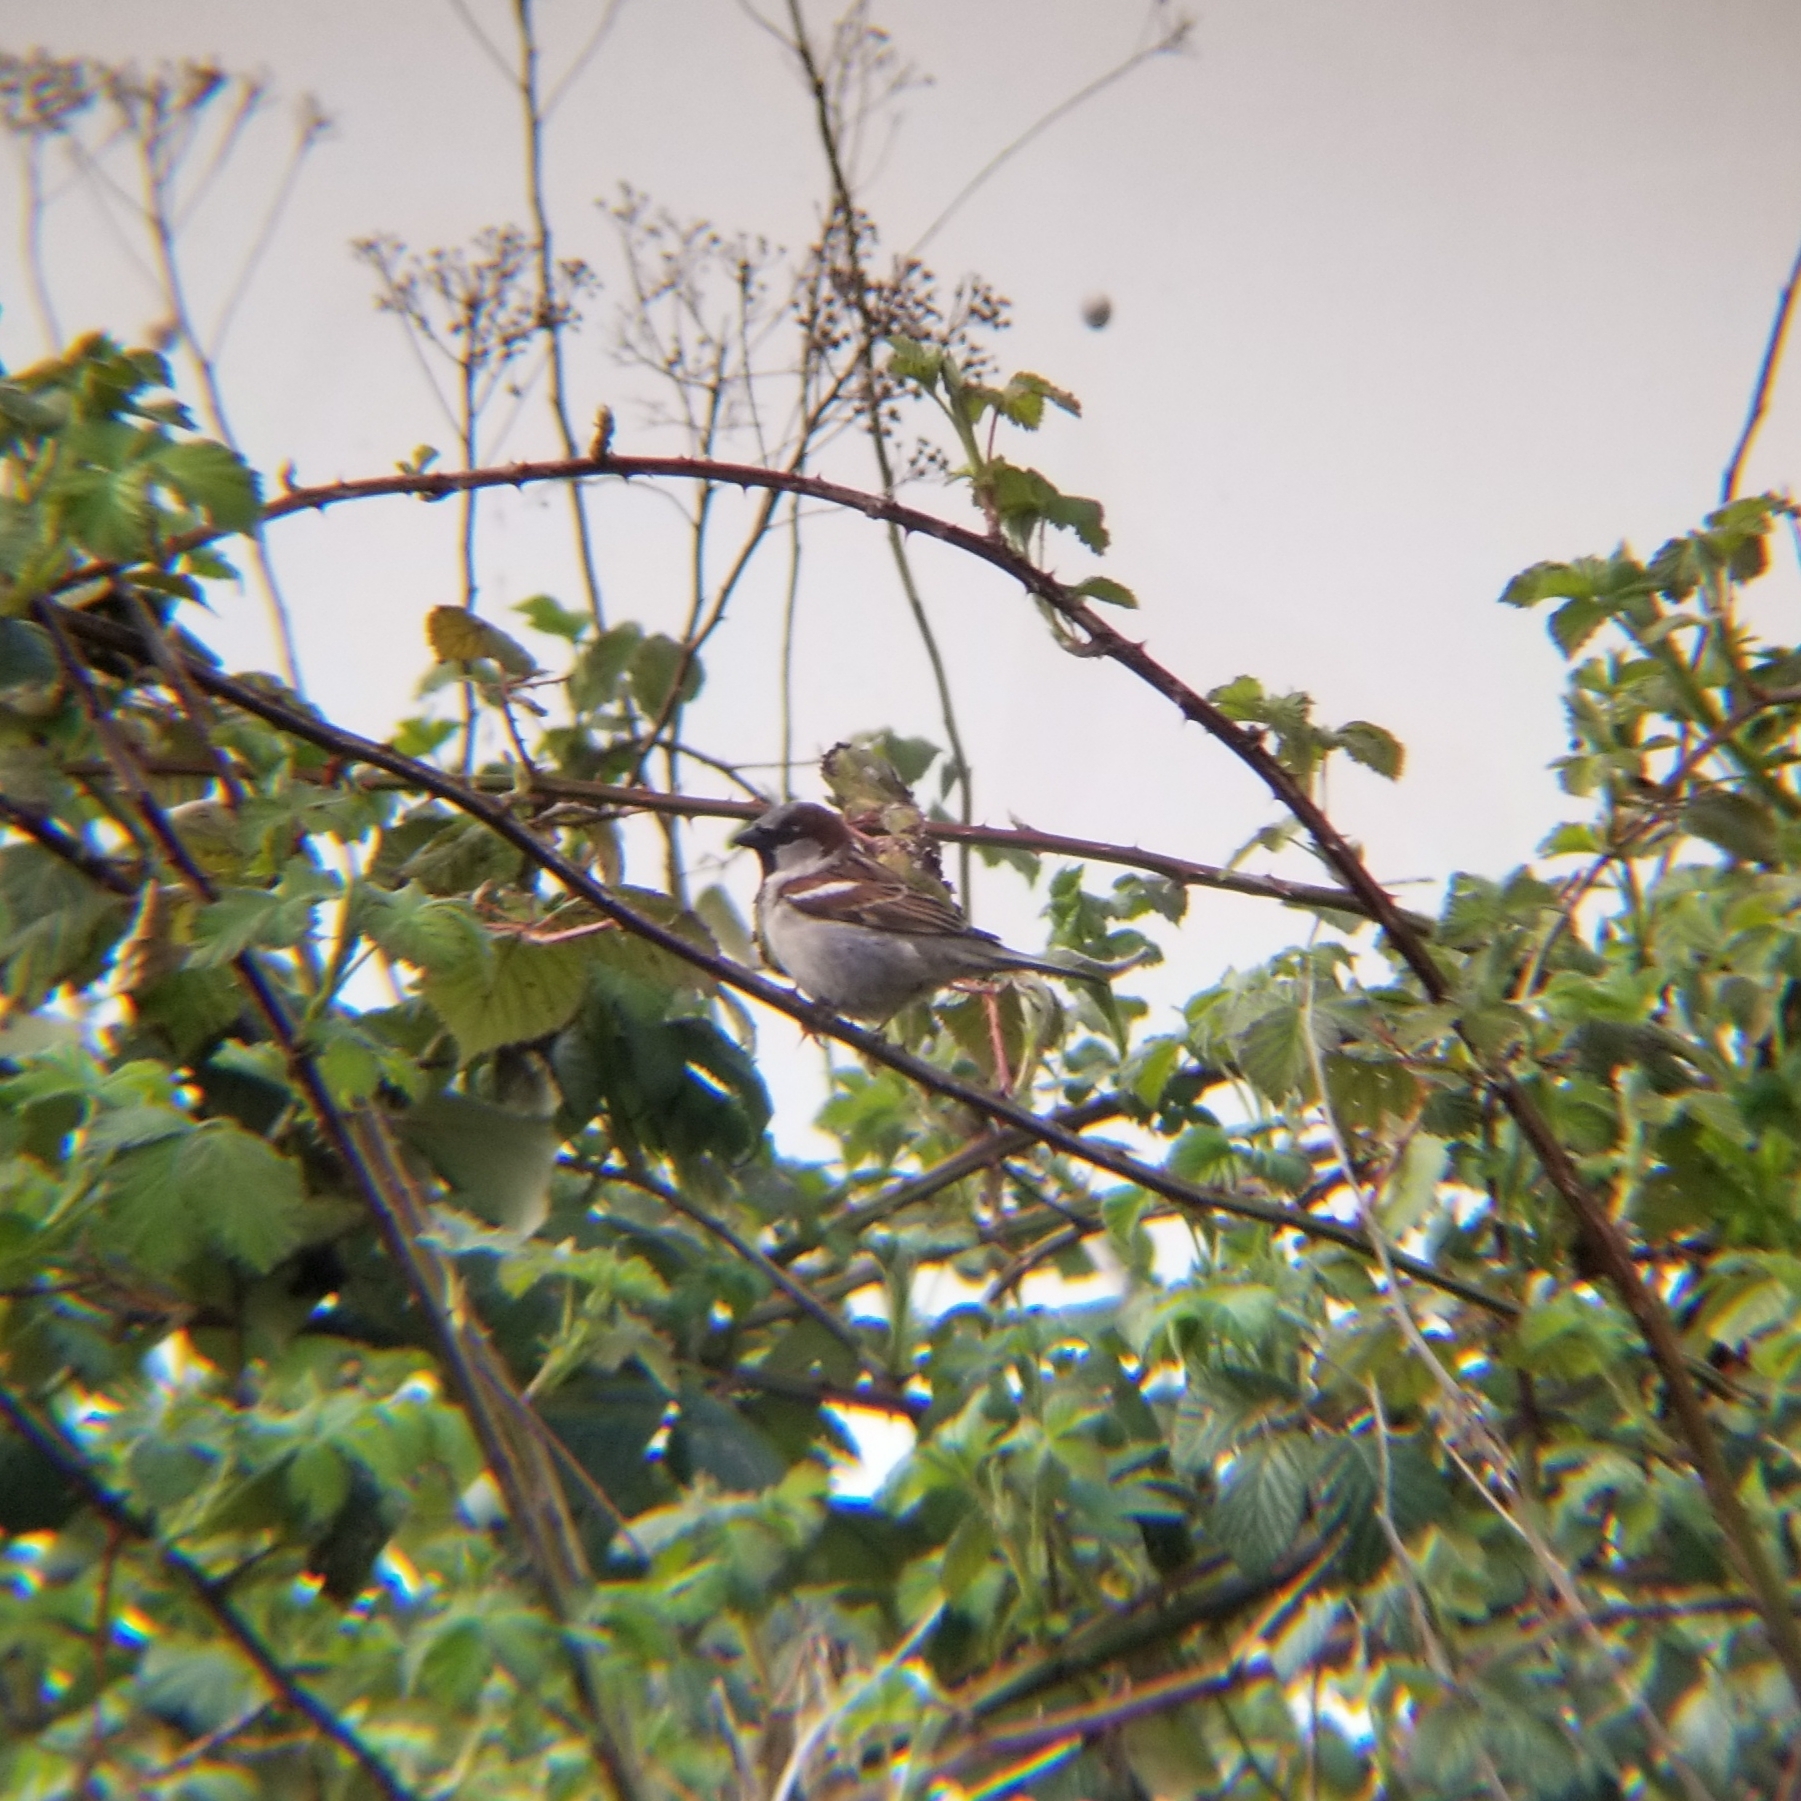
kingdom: Animalia
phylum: Chordata
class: Aves
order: Passeriformes
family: Passeridae
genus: Passer
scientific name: Passer domesticus
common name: House sparrow
